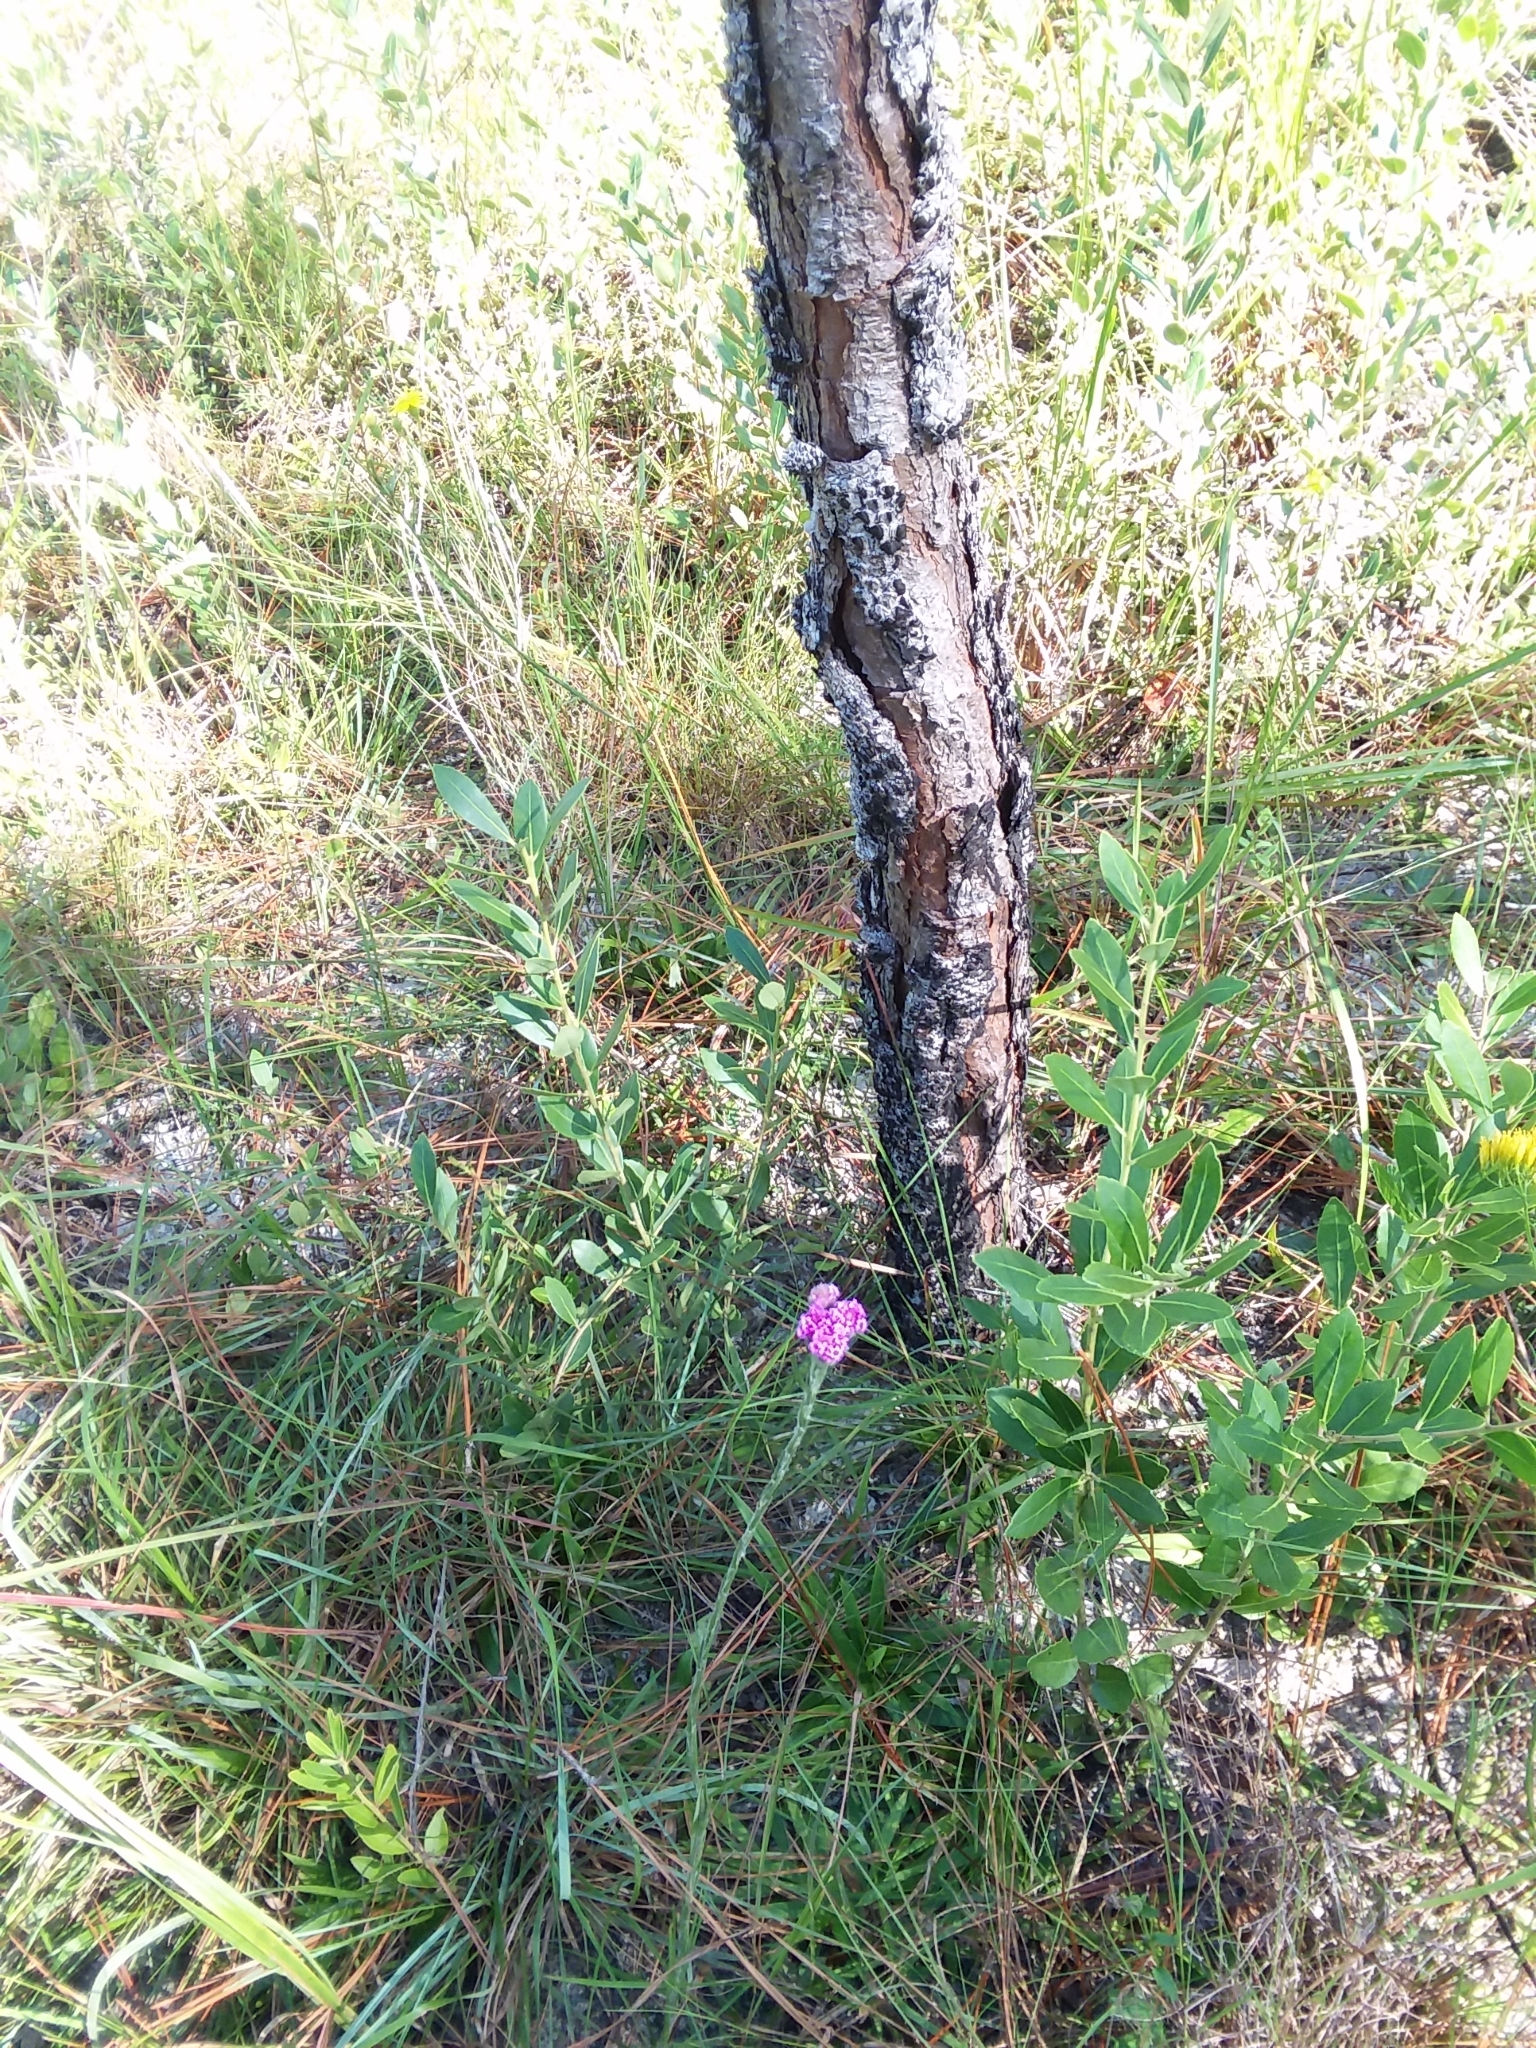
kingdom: Plantae
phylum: Tracheophyta
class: Magnoliopsida
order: Asterales
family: Asteraceae
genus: Carphephorus
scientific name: Carphephorus pseudoliatris
